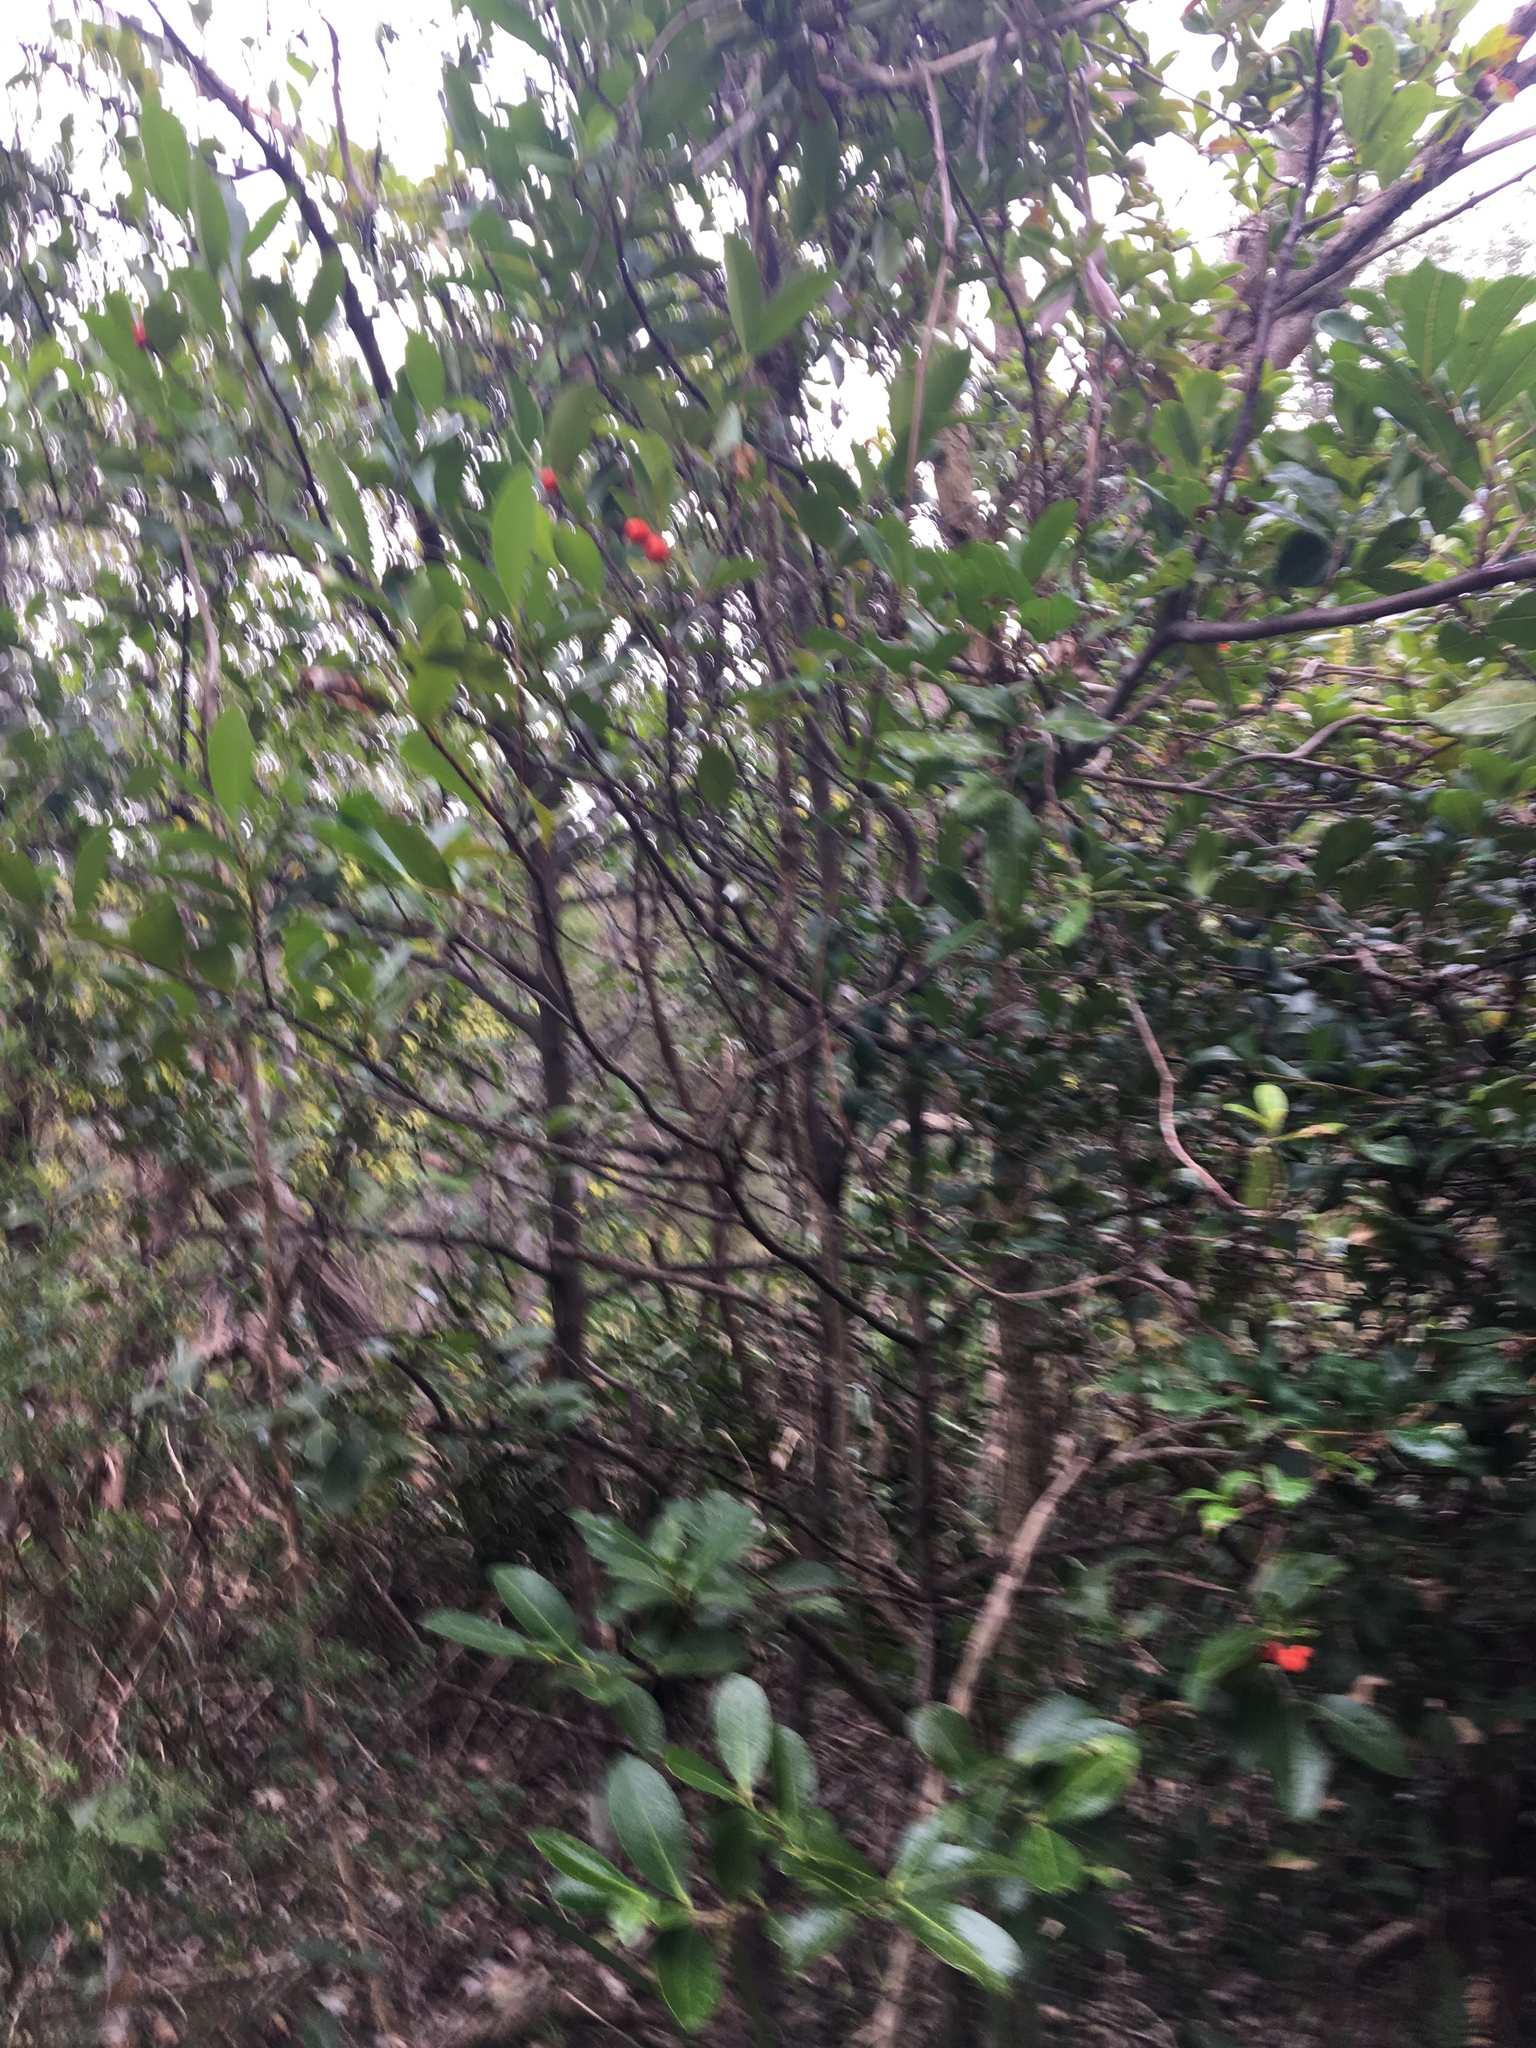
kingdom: Plantae
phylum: Tracheophyta
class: Magnoliopsida
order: Celastrales
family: Celastraceae
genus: Elaeodendron
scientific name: Elaeodendron australe
